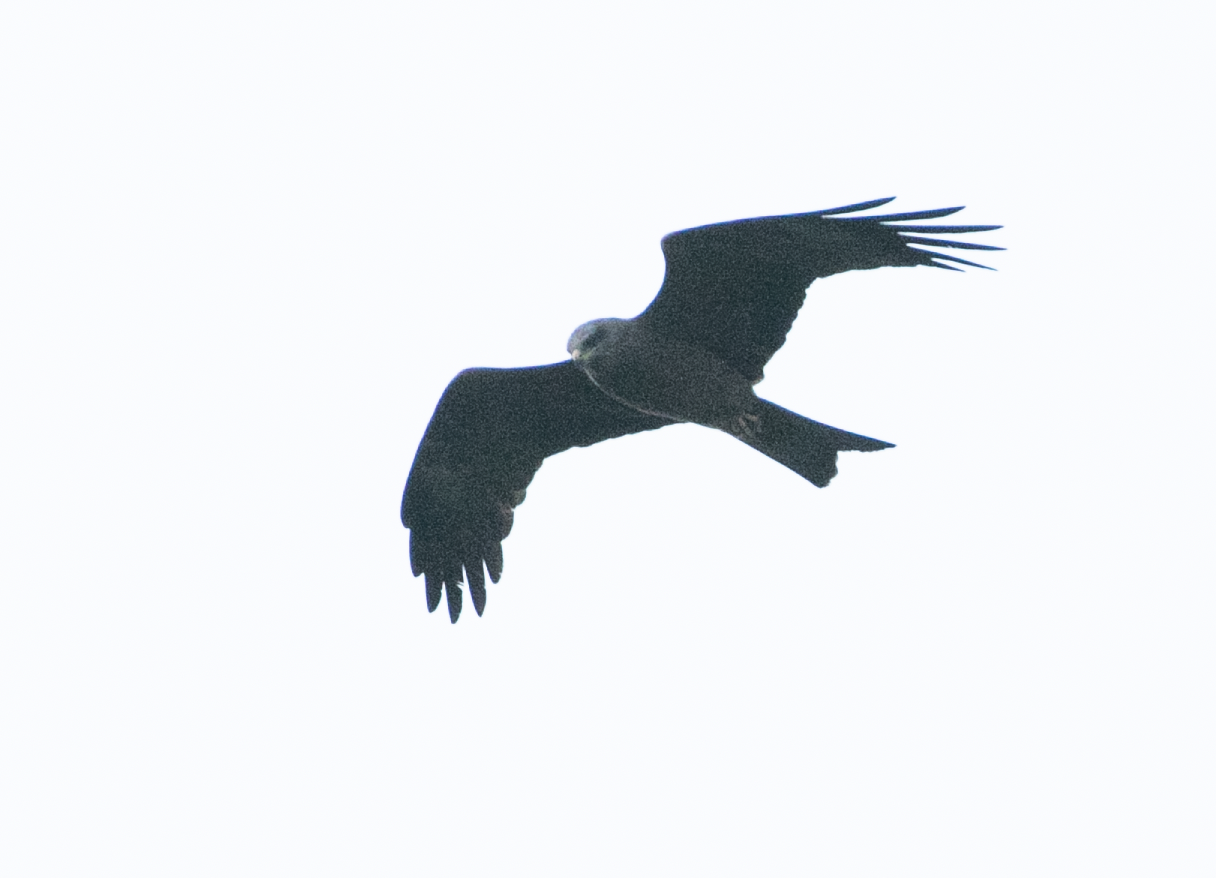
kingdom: Animalia
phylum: Chordata
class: Aves
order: Accipitriformes
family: Accipitridae
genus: Milvus
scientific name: Milvus migrans
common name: Black kite
